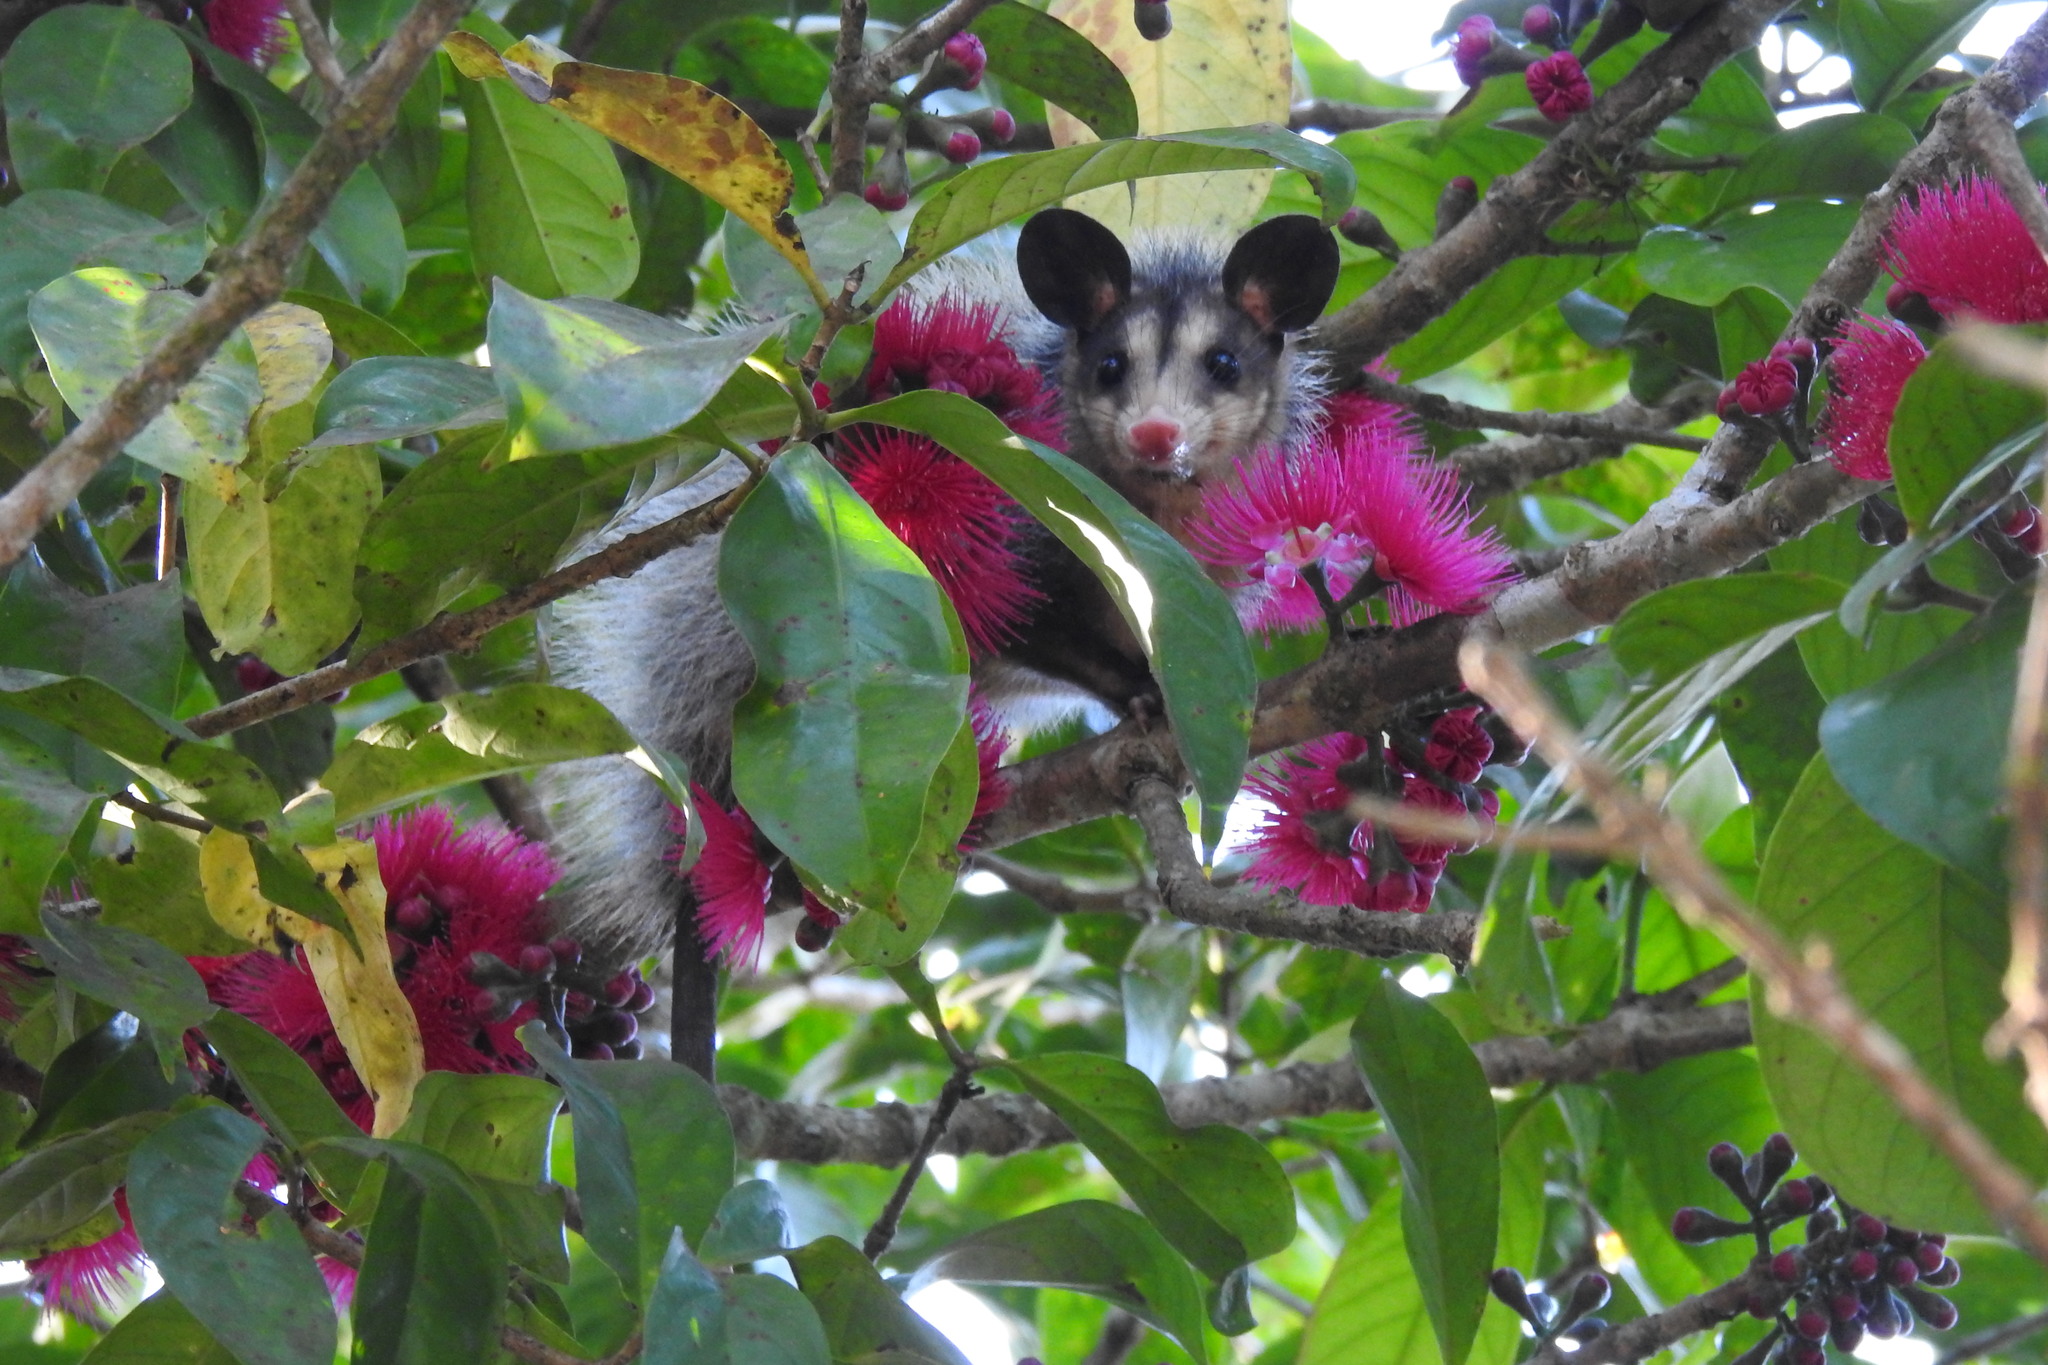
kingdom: Animalia
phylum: Chordata
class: Mammalia
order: Didelphimorphia
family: Didelphidae
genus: Didelphis
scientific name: Didelphis marsupialis
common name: Common opossum
